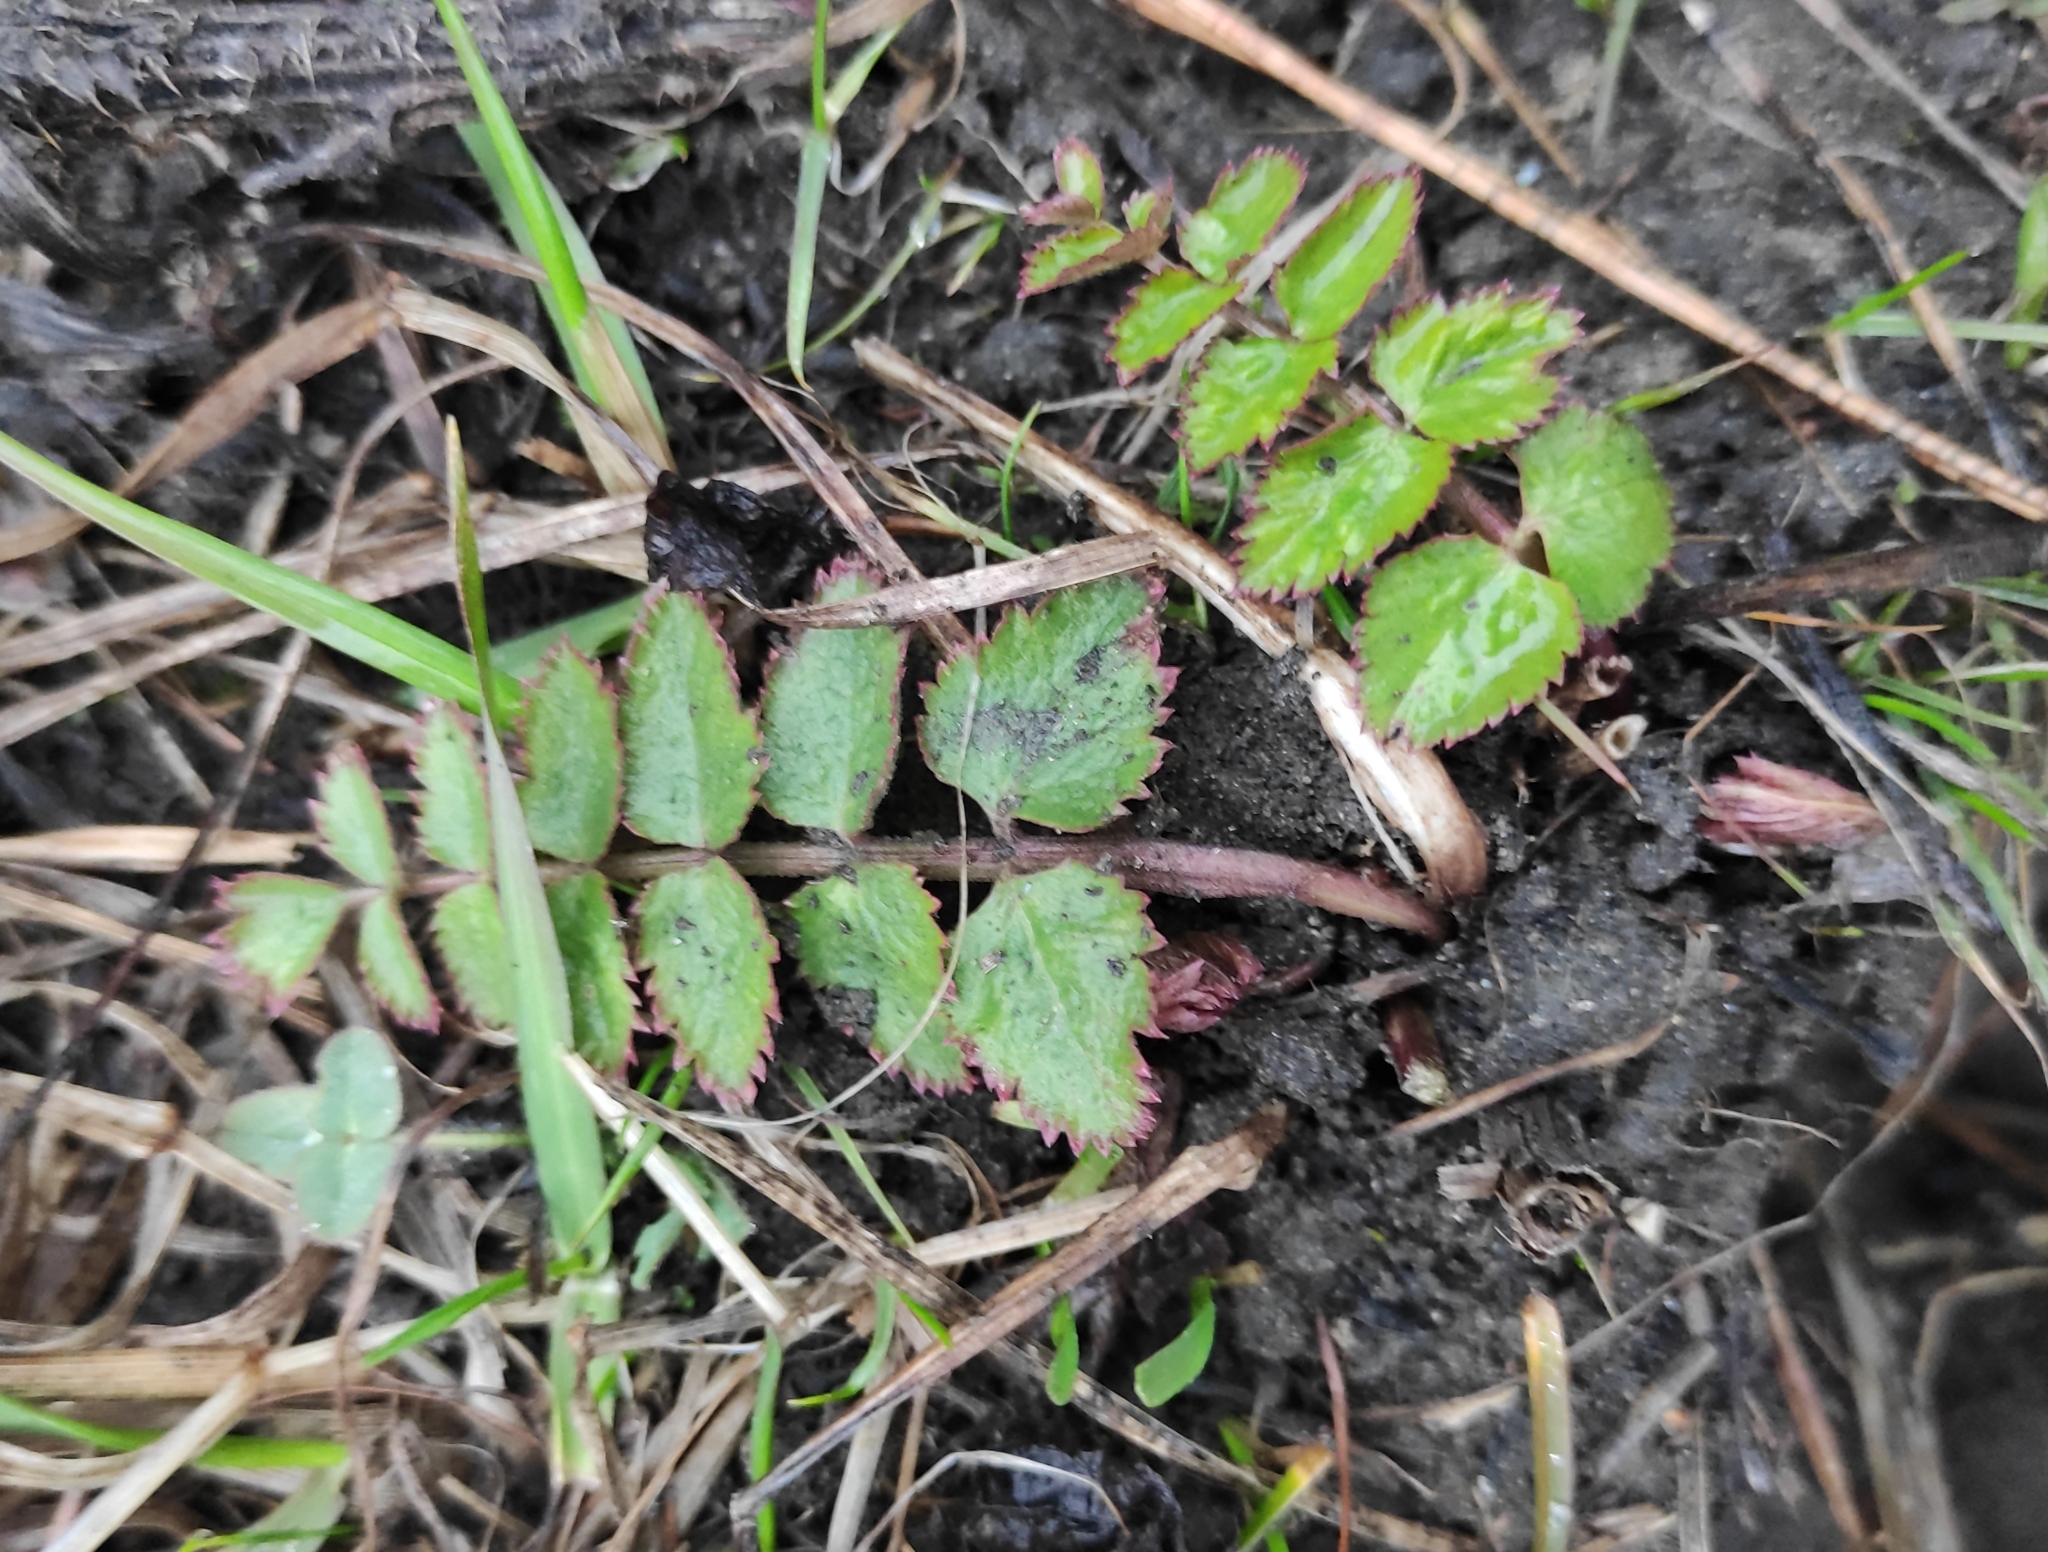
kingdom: Plantae
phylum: Tracheophyta
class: Magnoliopsida
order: Apiales
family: Apiaceae
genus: Pimpinella
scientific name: Pimpinella saxifraga
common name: Burnet-saxifrage
